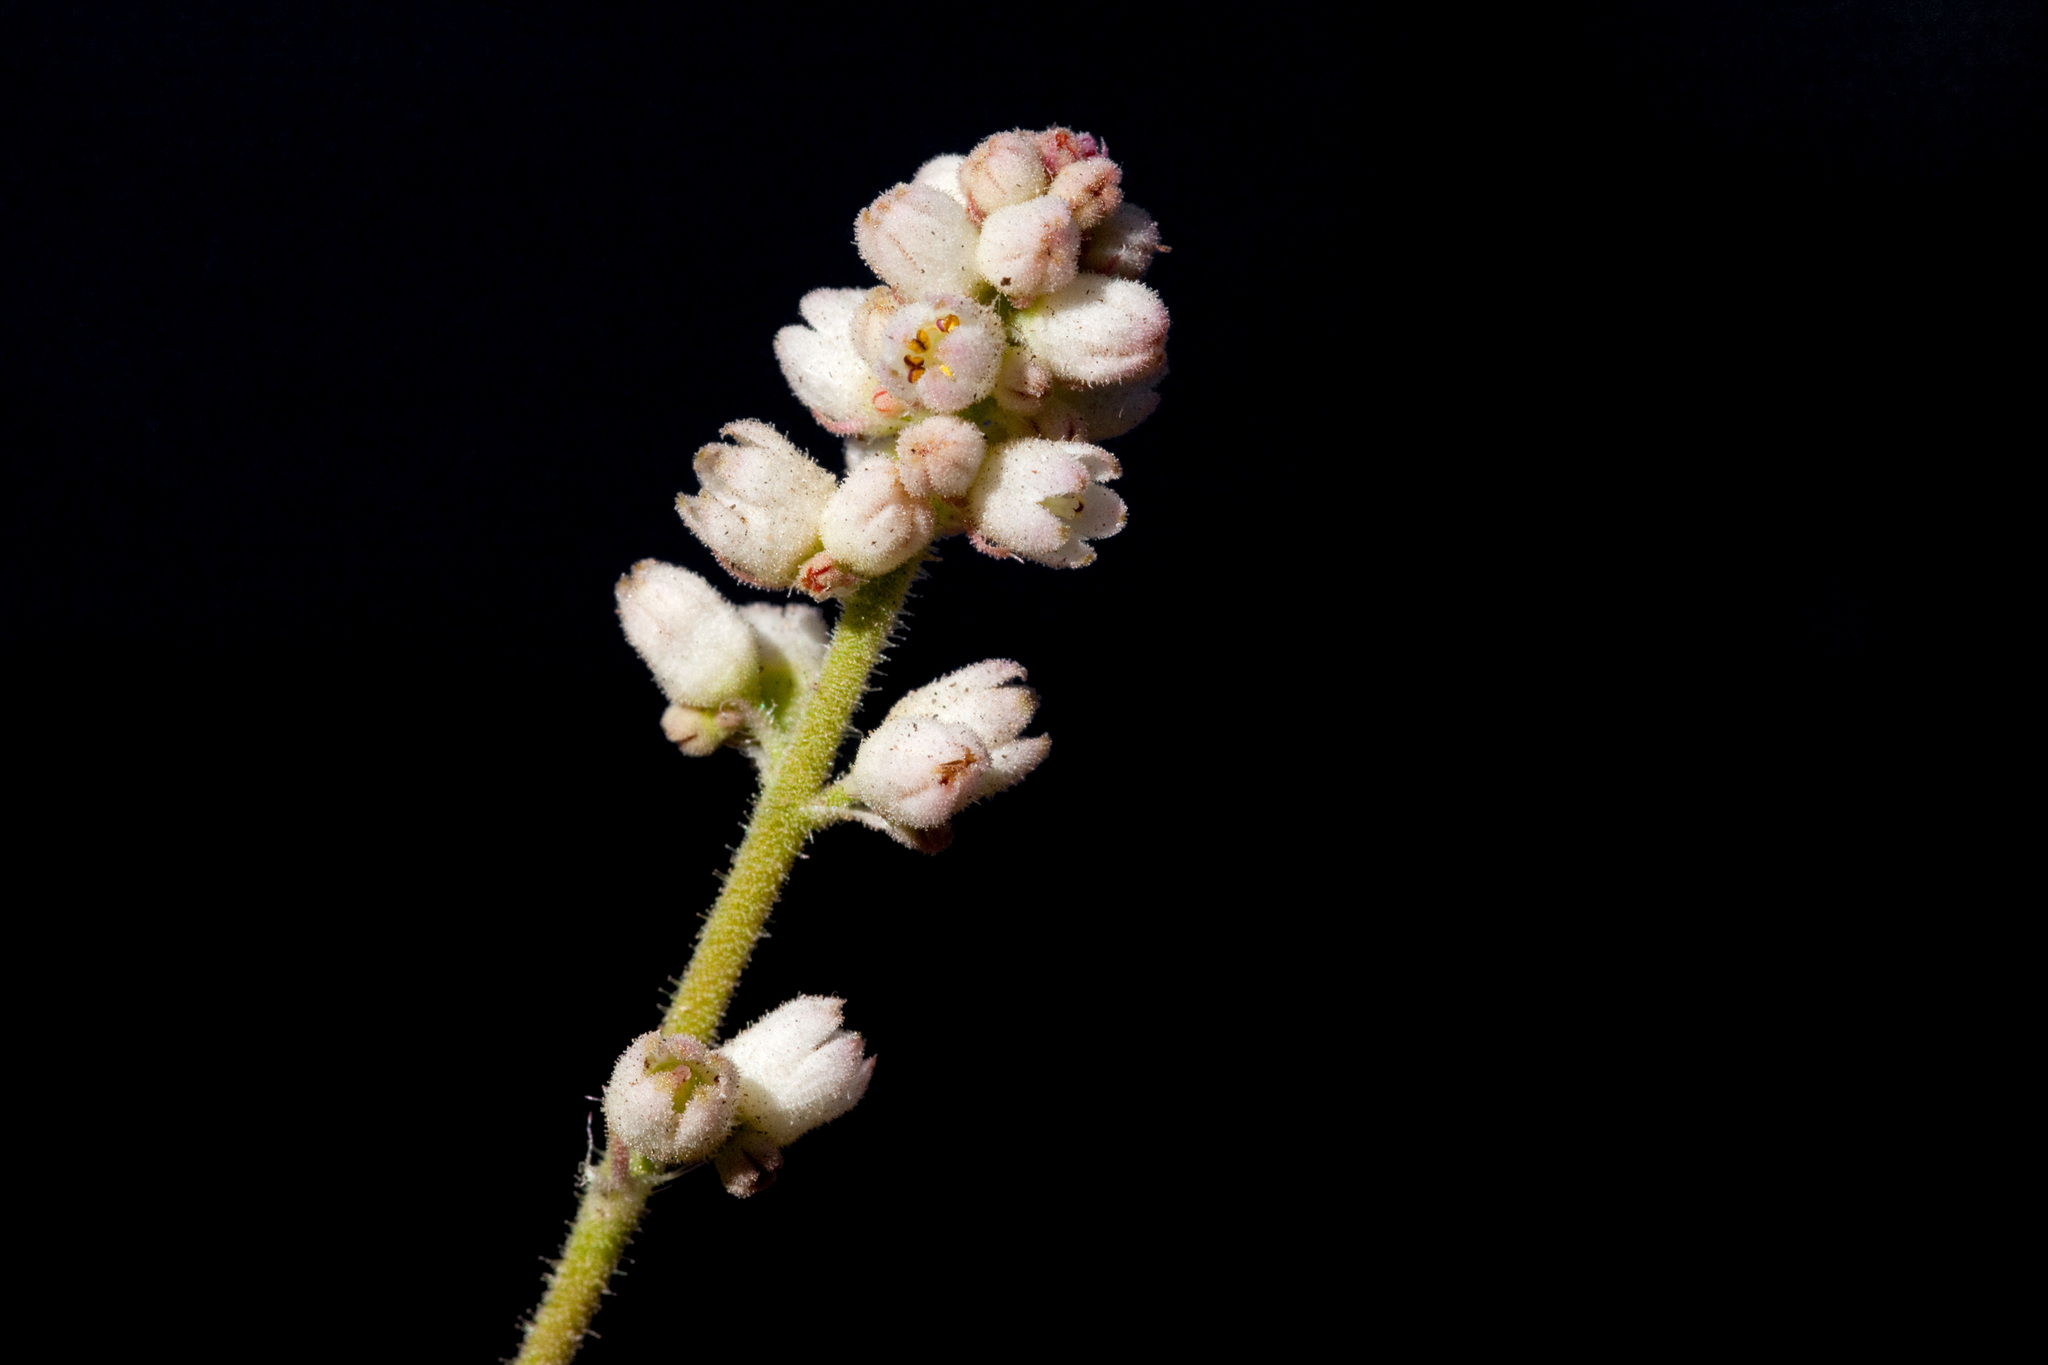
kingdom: Plantae
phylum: Tracheophyta
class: Magnoliopsida
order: Saxifragales
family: Saxifragaceae
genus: Heuchera
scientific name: Heuchera glomerulata
